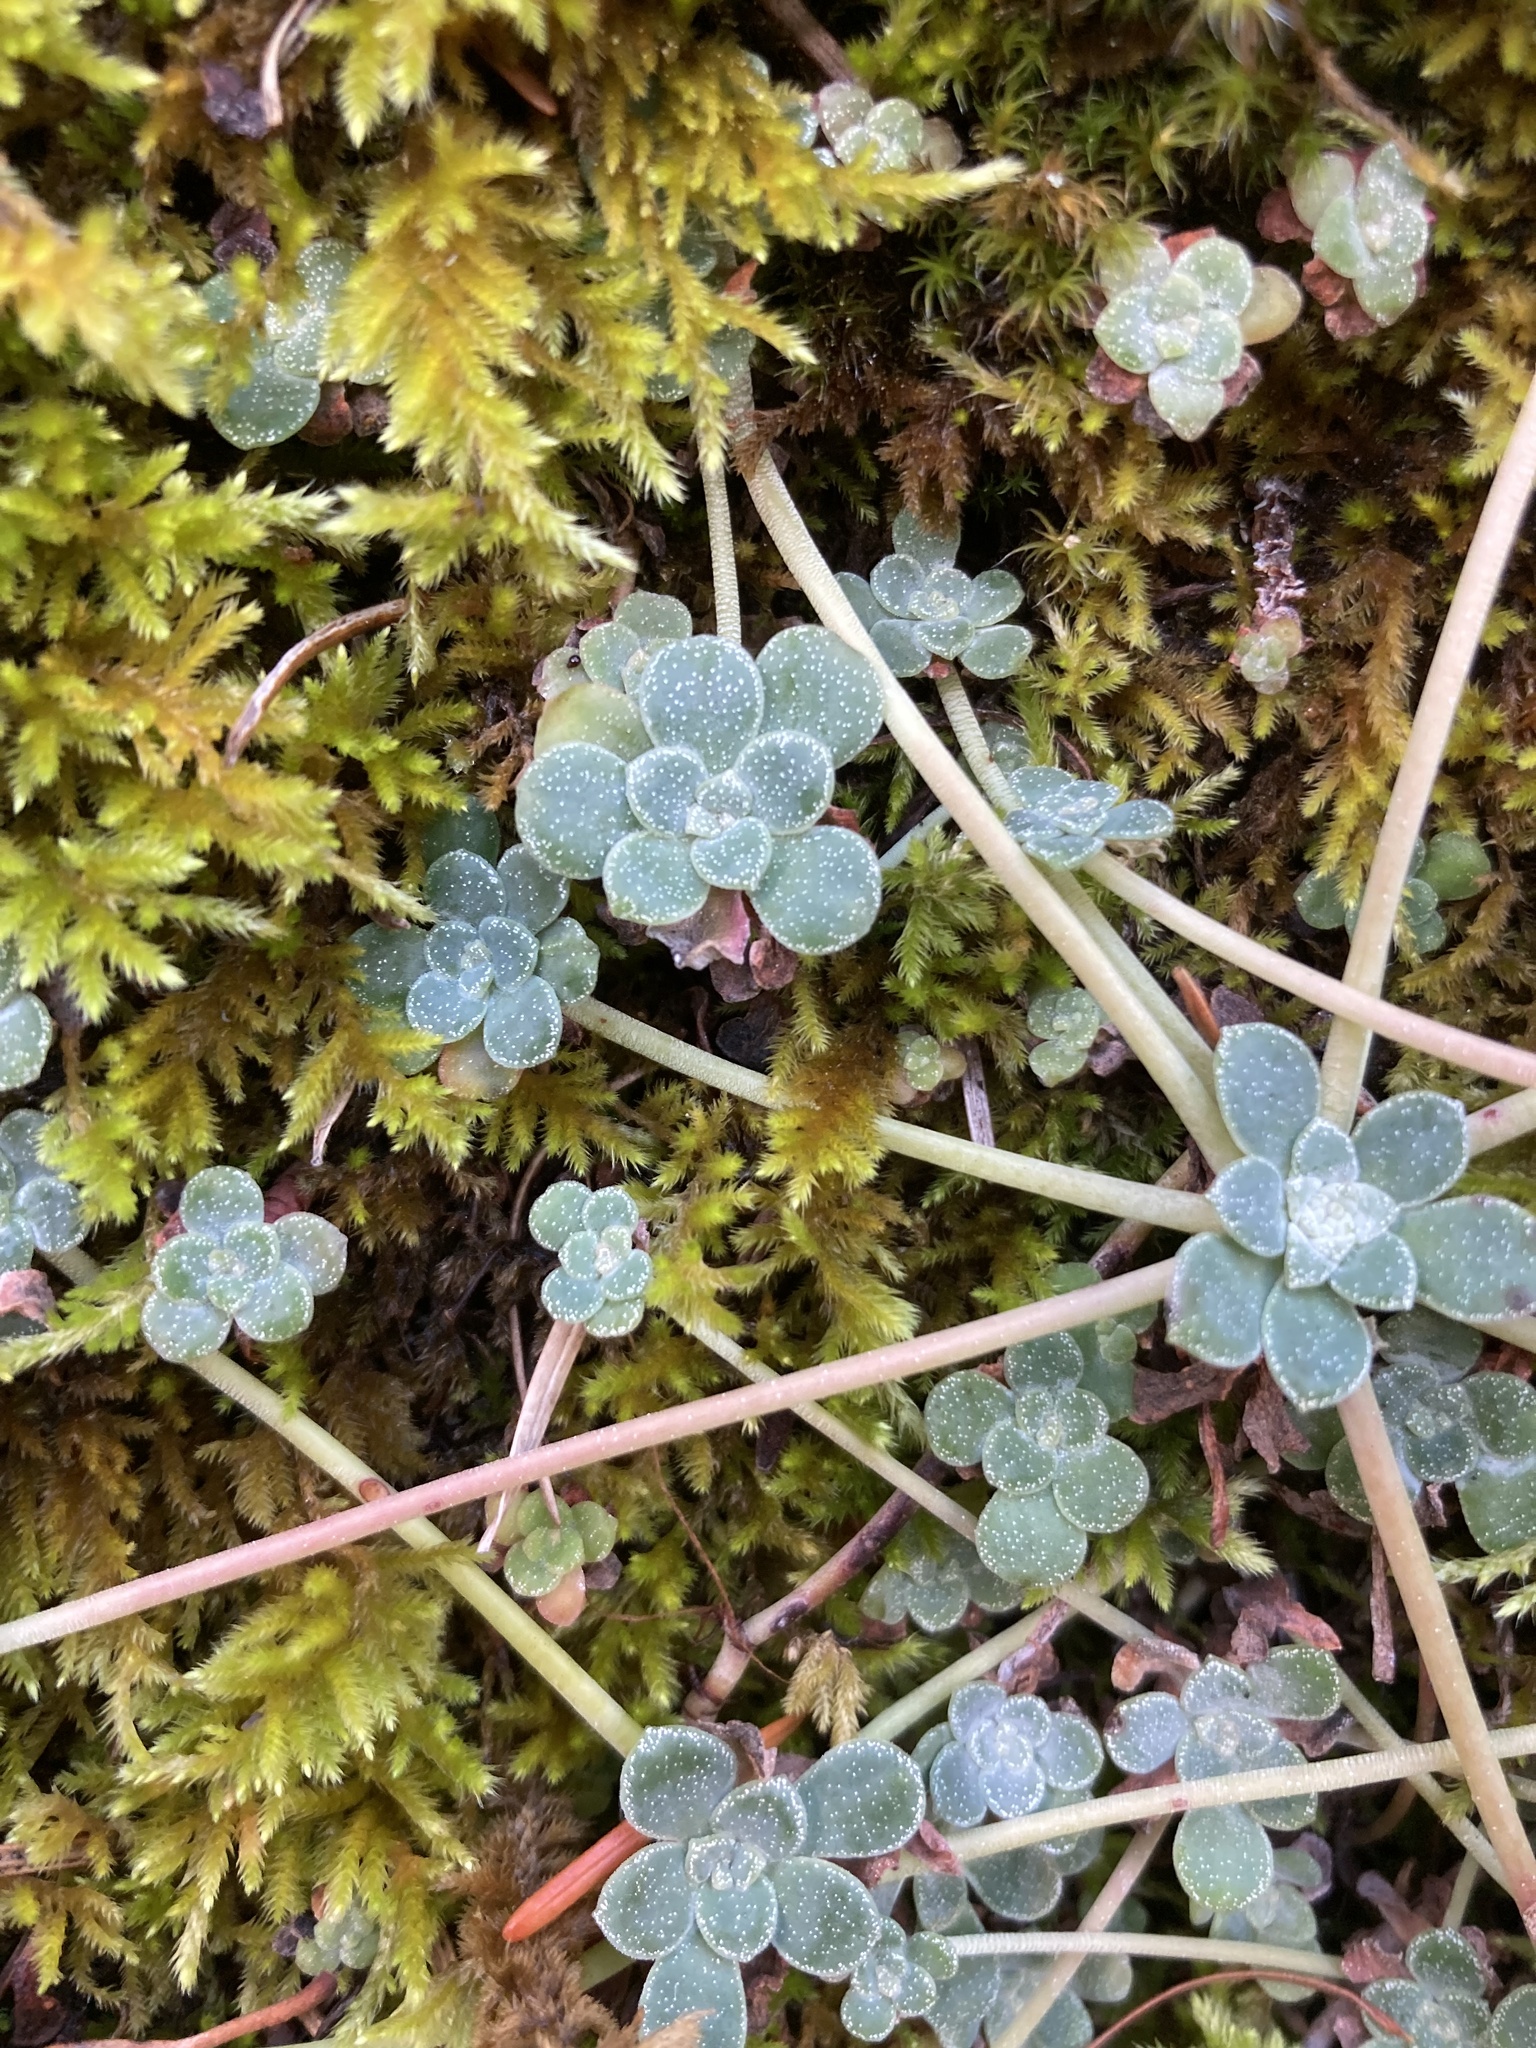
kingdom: Plantae
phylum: Tracheophyta
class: Magnoliopsida
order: Saxifragales
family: Crassulaceae
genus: Sedum
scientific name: Sedum spathulifolium
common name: Colorado stonecrop
